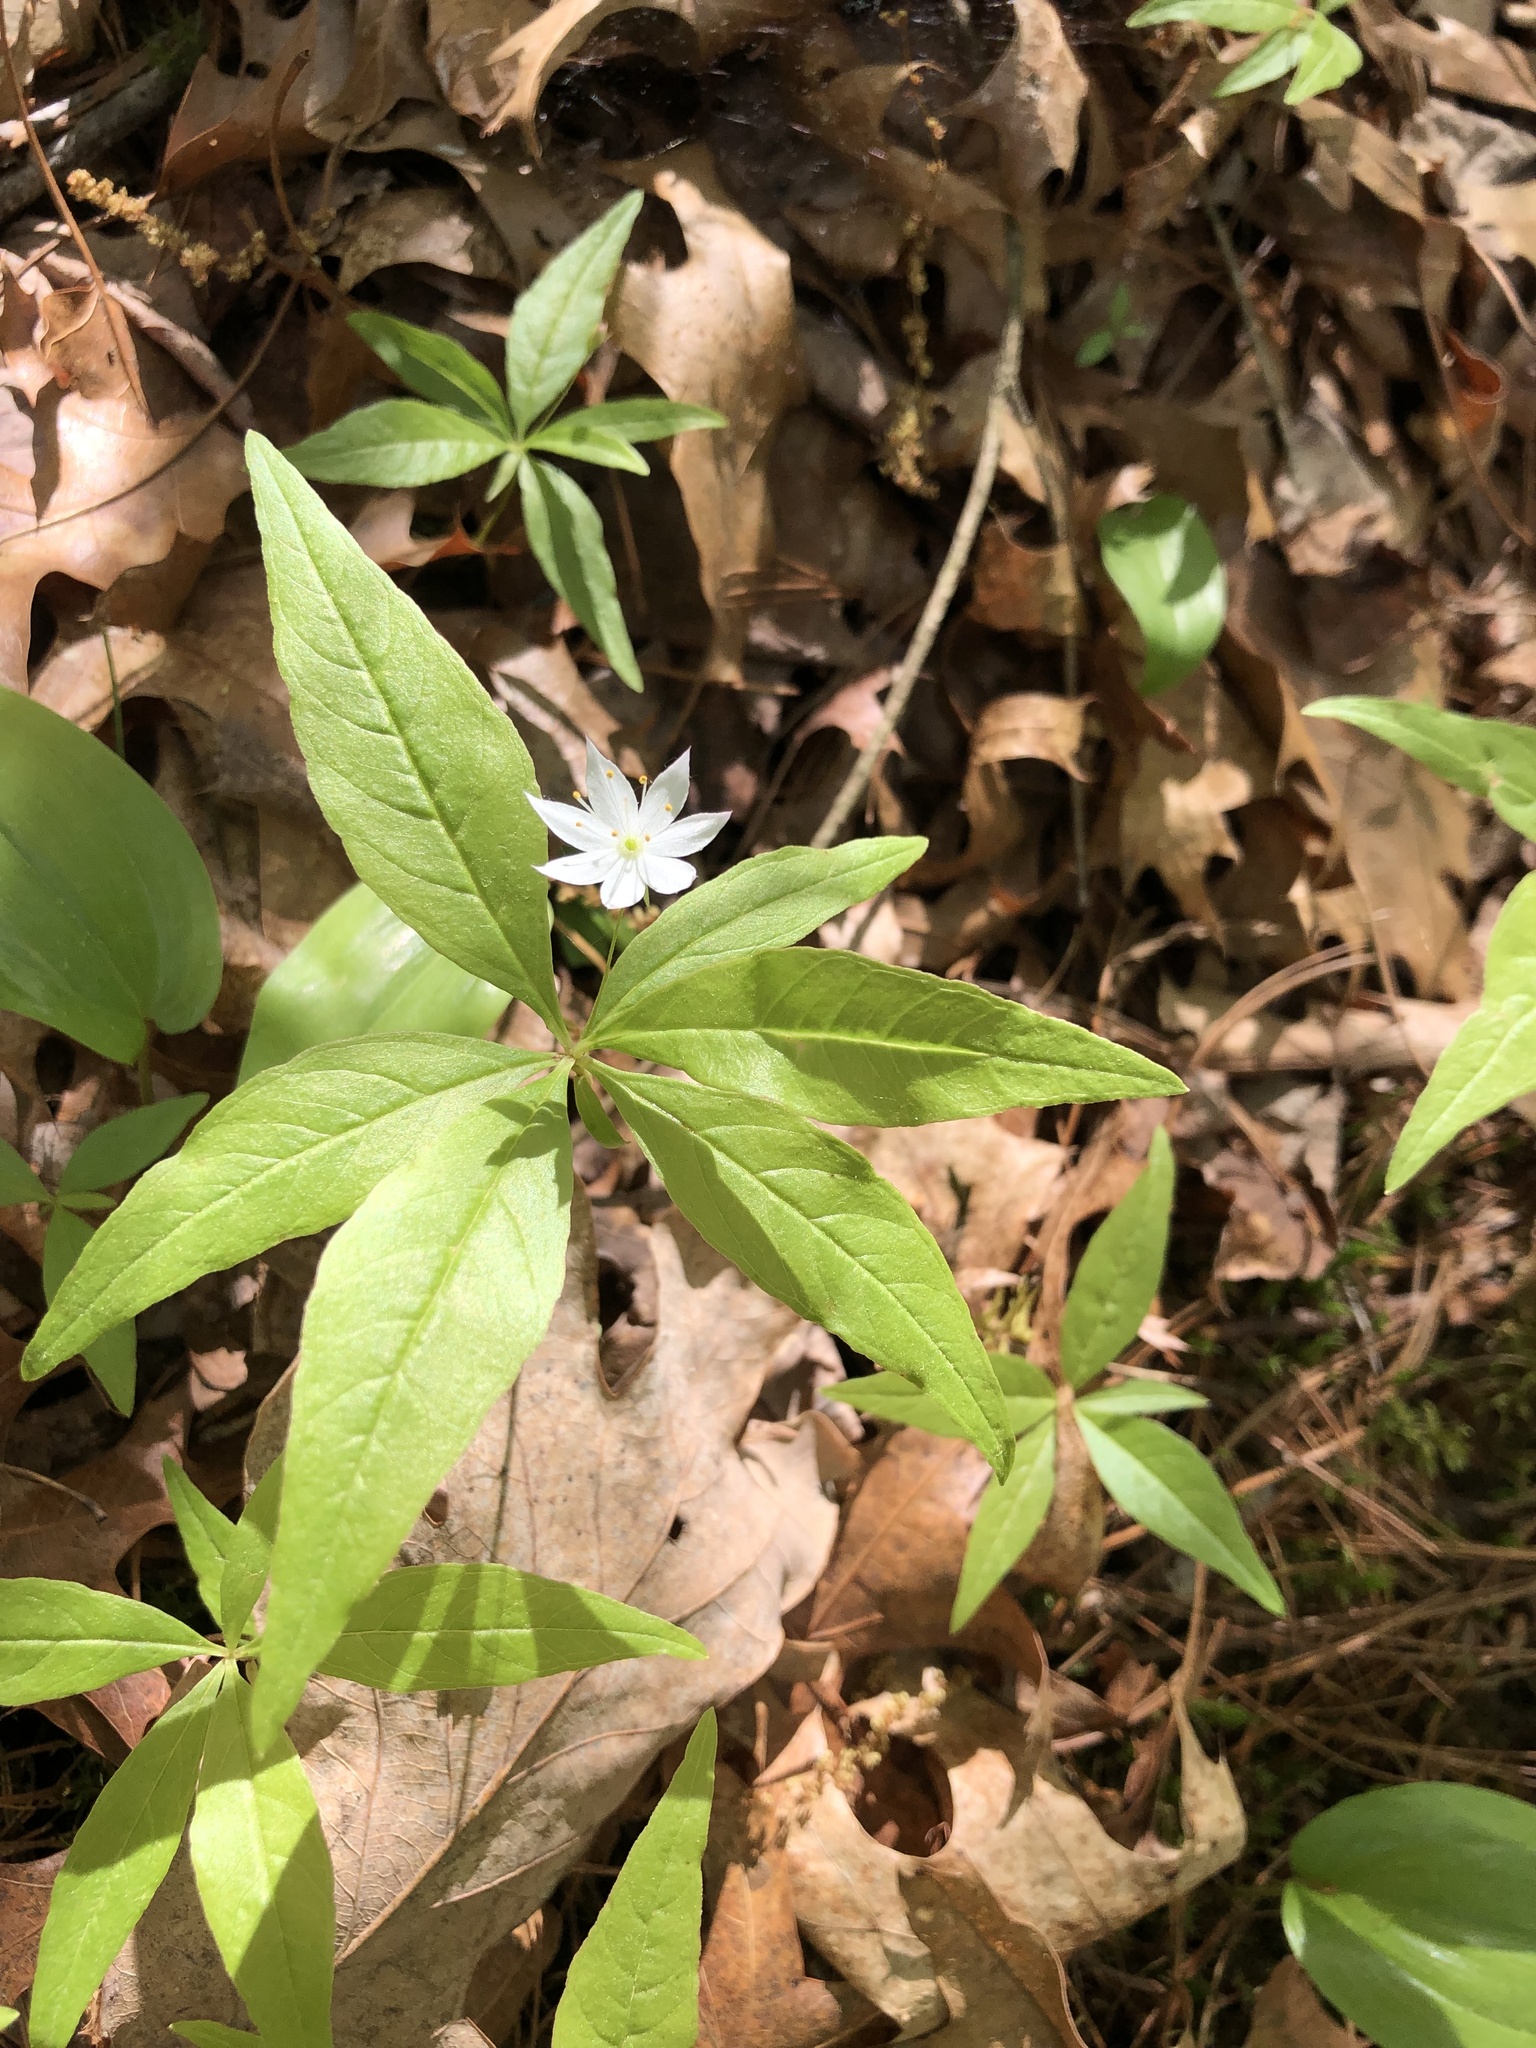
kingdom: Plantae
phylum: Tracheophyta
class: Magnoliopsida
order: Ericales
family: Primulaceae
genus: Lysimachia
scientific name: Lysimachia borealis
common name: American starflower
